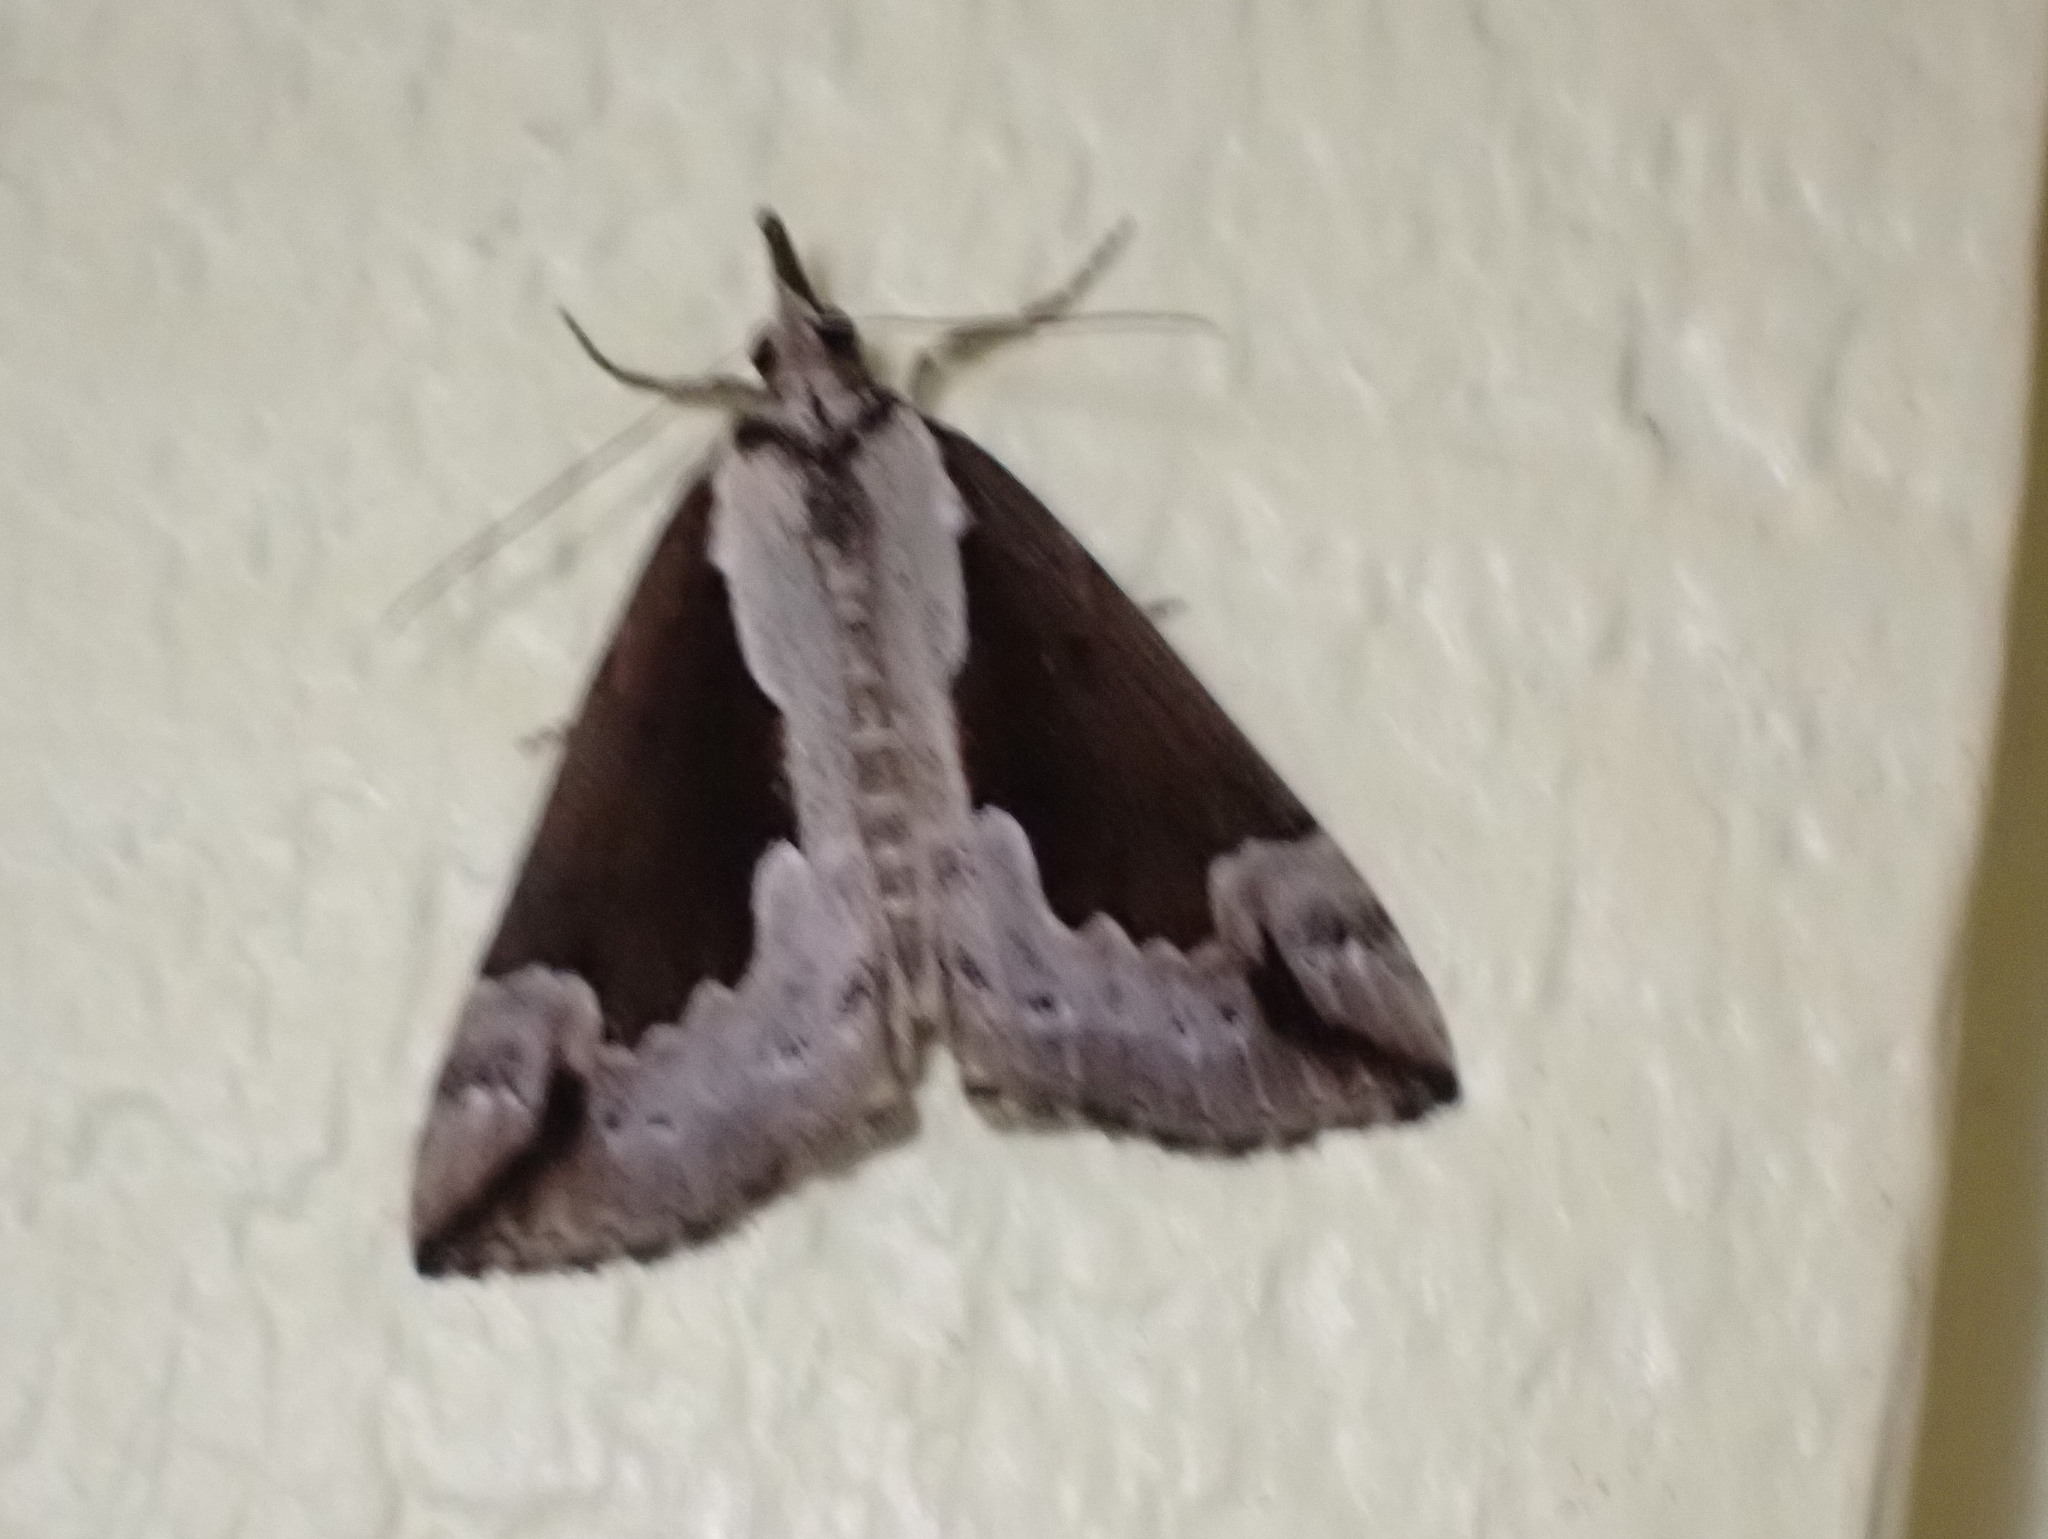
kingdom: Animalia
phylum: Arthropoda
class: Insecta
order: Lepidoptera
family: Erebidae
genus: Hypena
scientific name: Hypena baltimoralis
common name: Baltimore snout
